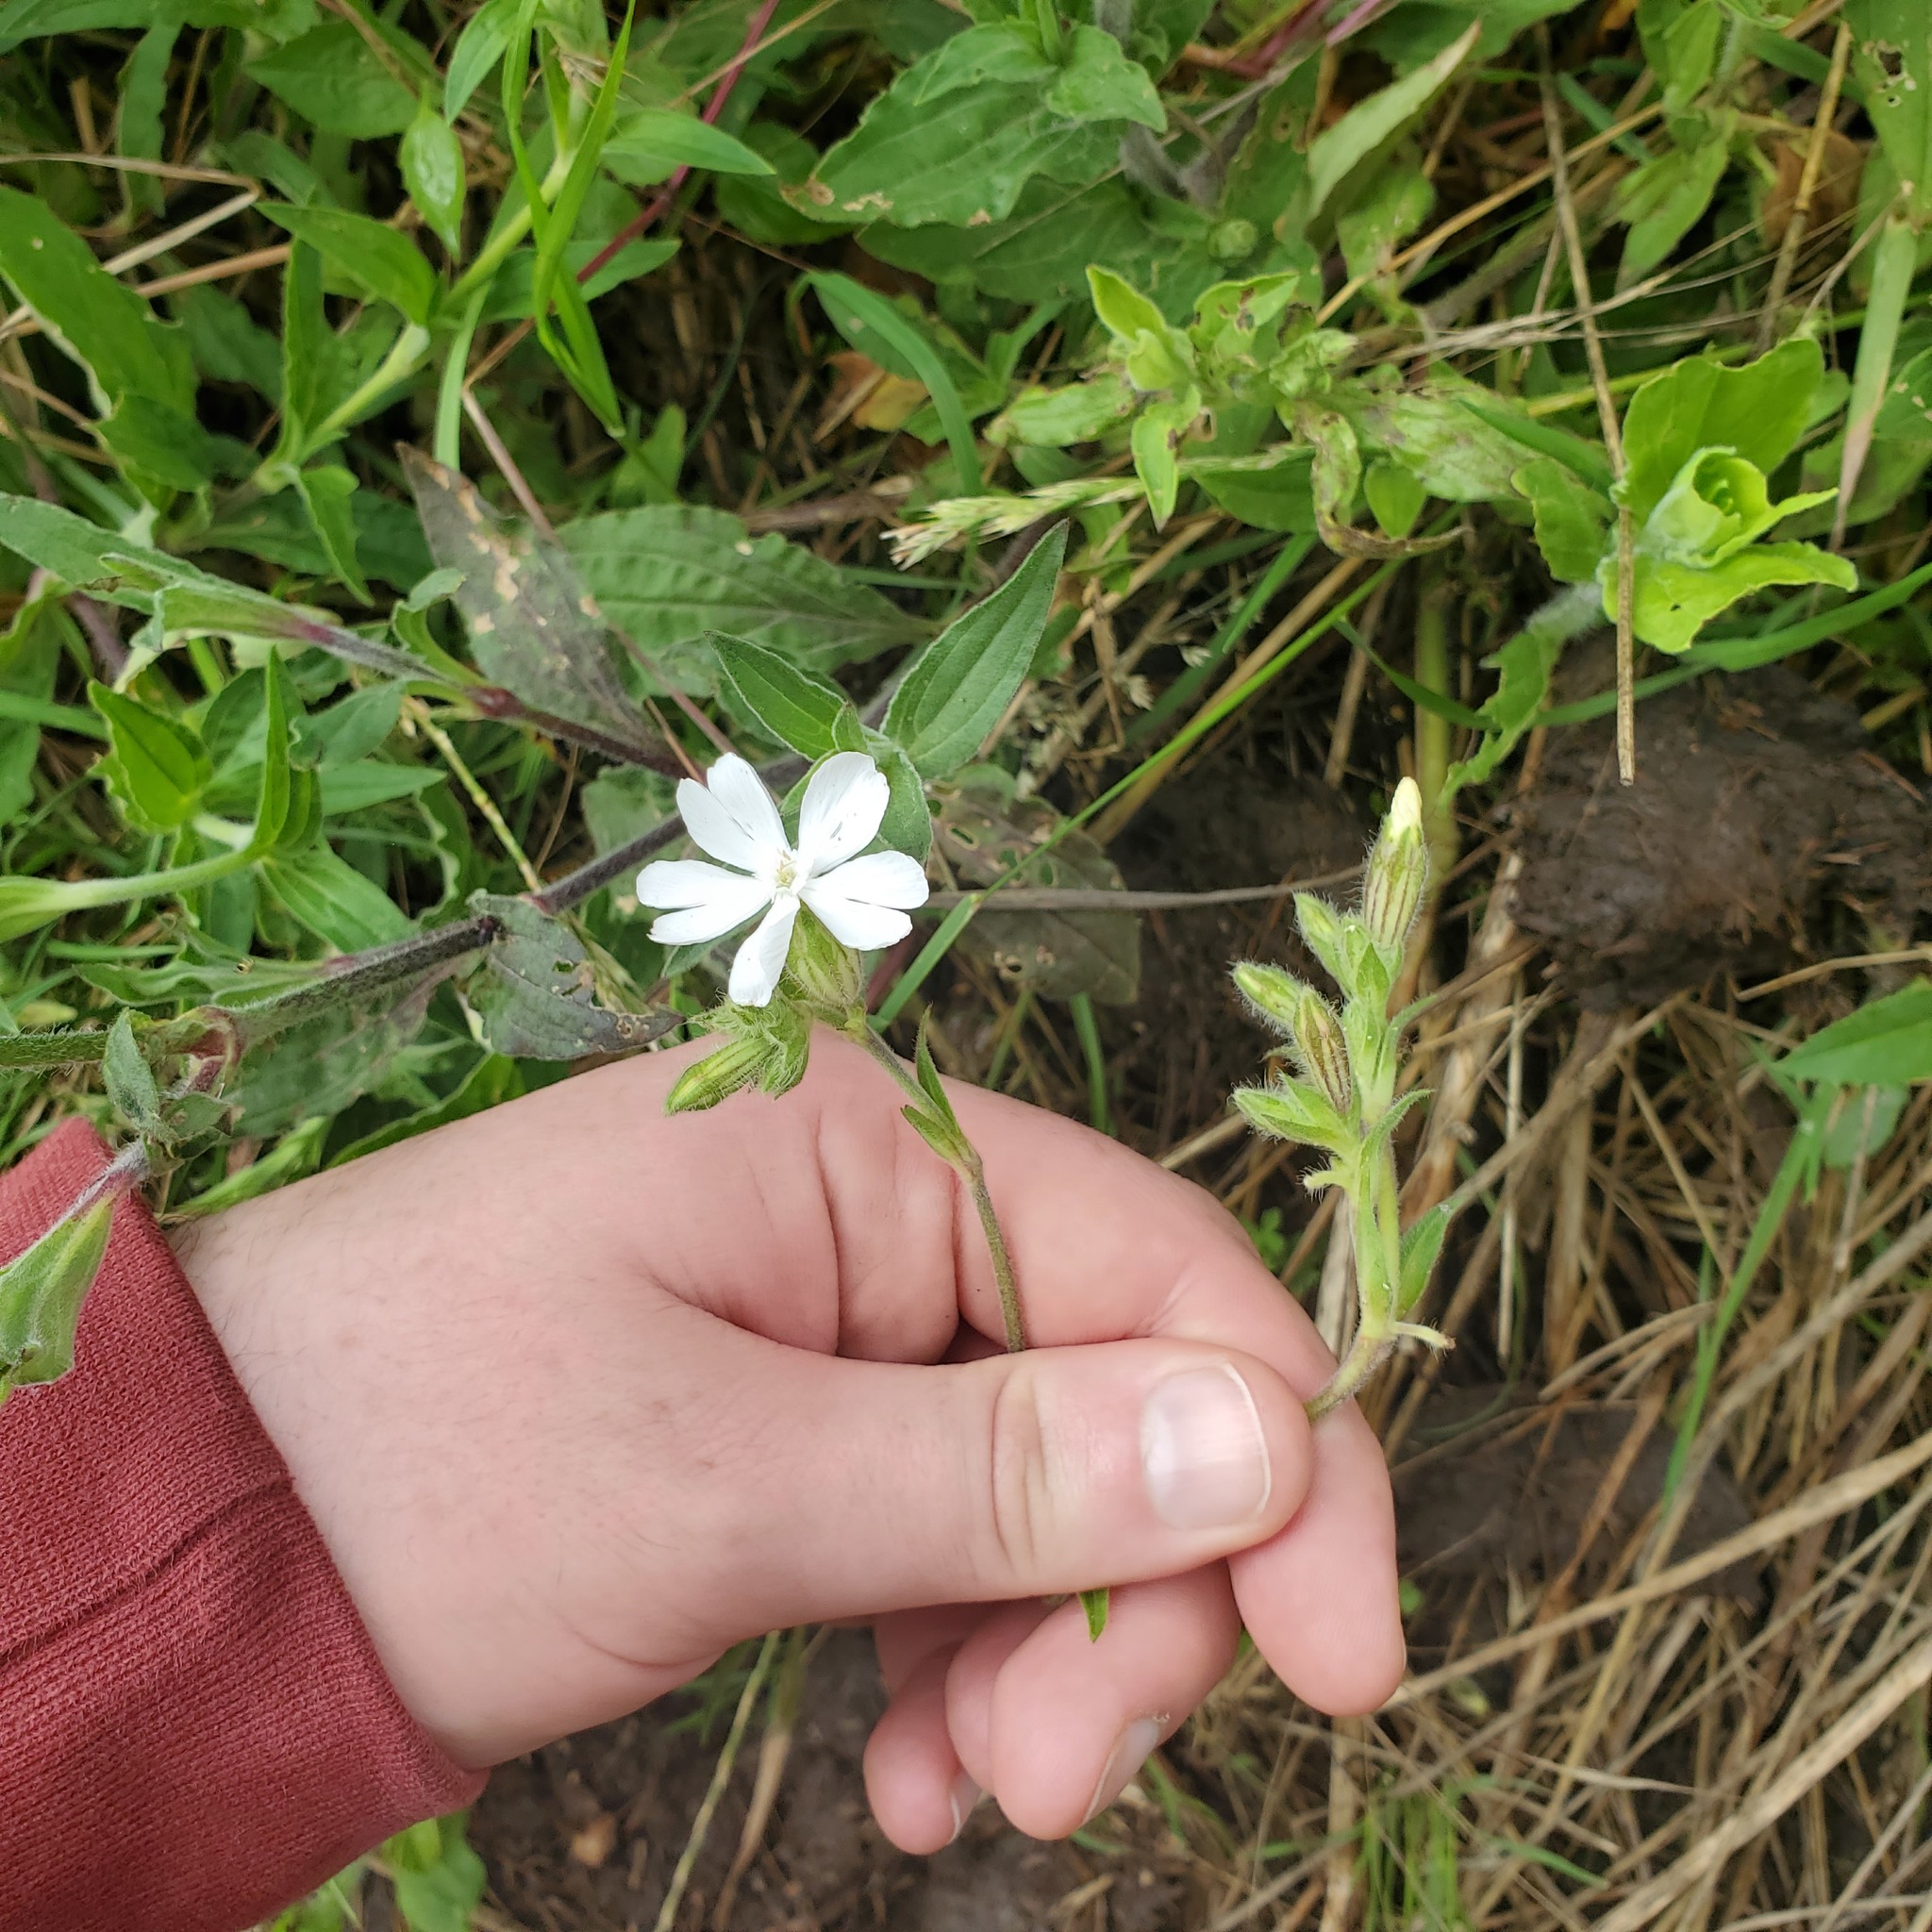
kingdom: Plantae
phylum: Tracheophyta
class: Magnoliopsida
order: Caryophyllales
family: Caryophyllaceae
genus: Silene
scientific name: Silene latifolia
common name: White campion
